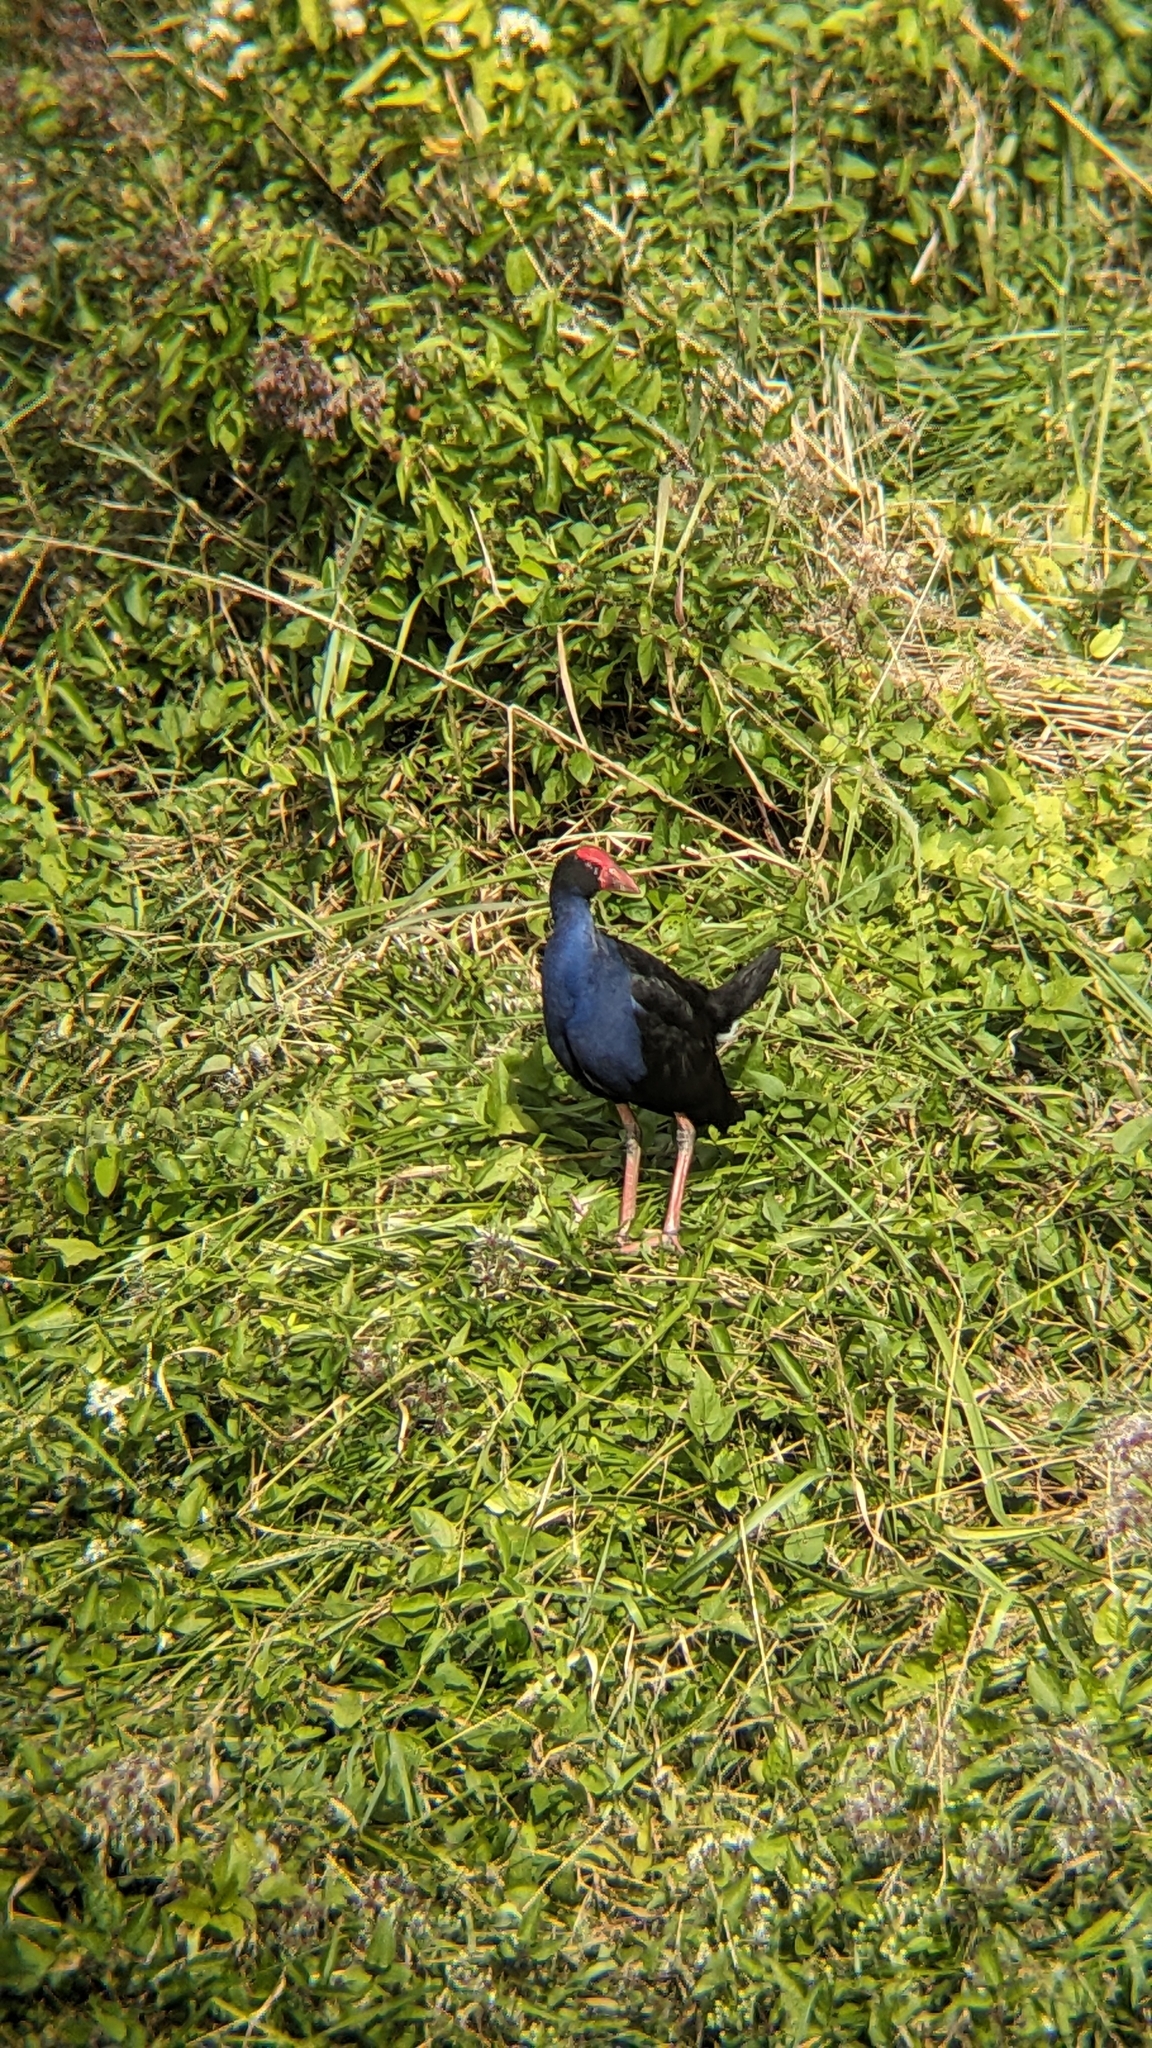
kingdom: Animalia
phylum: Chordata
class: Aves
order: Gruiformes
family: Rallidae
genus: Porphyrio
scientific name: Porphyrio melanotus
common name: Australasian swamphen
